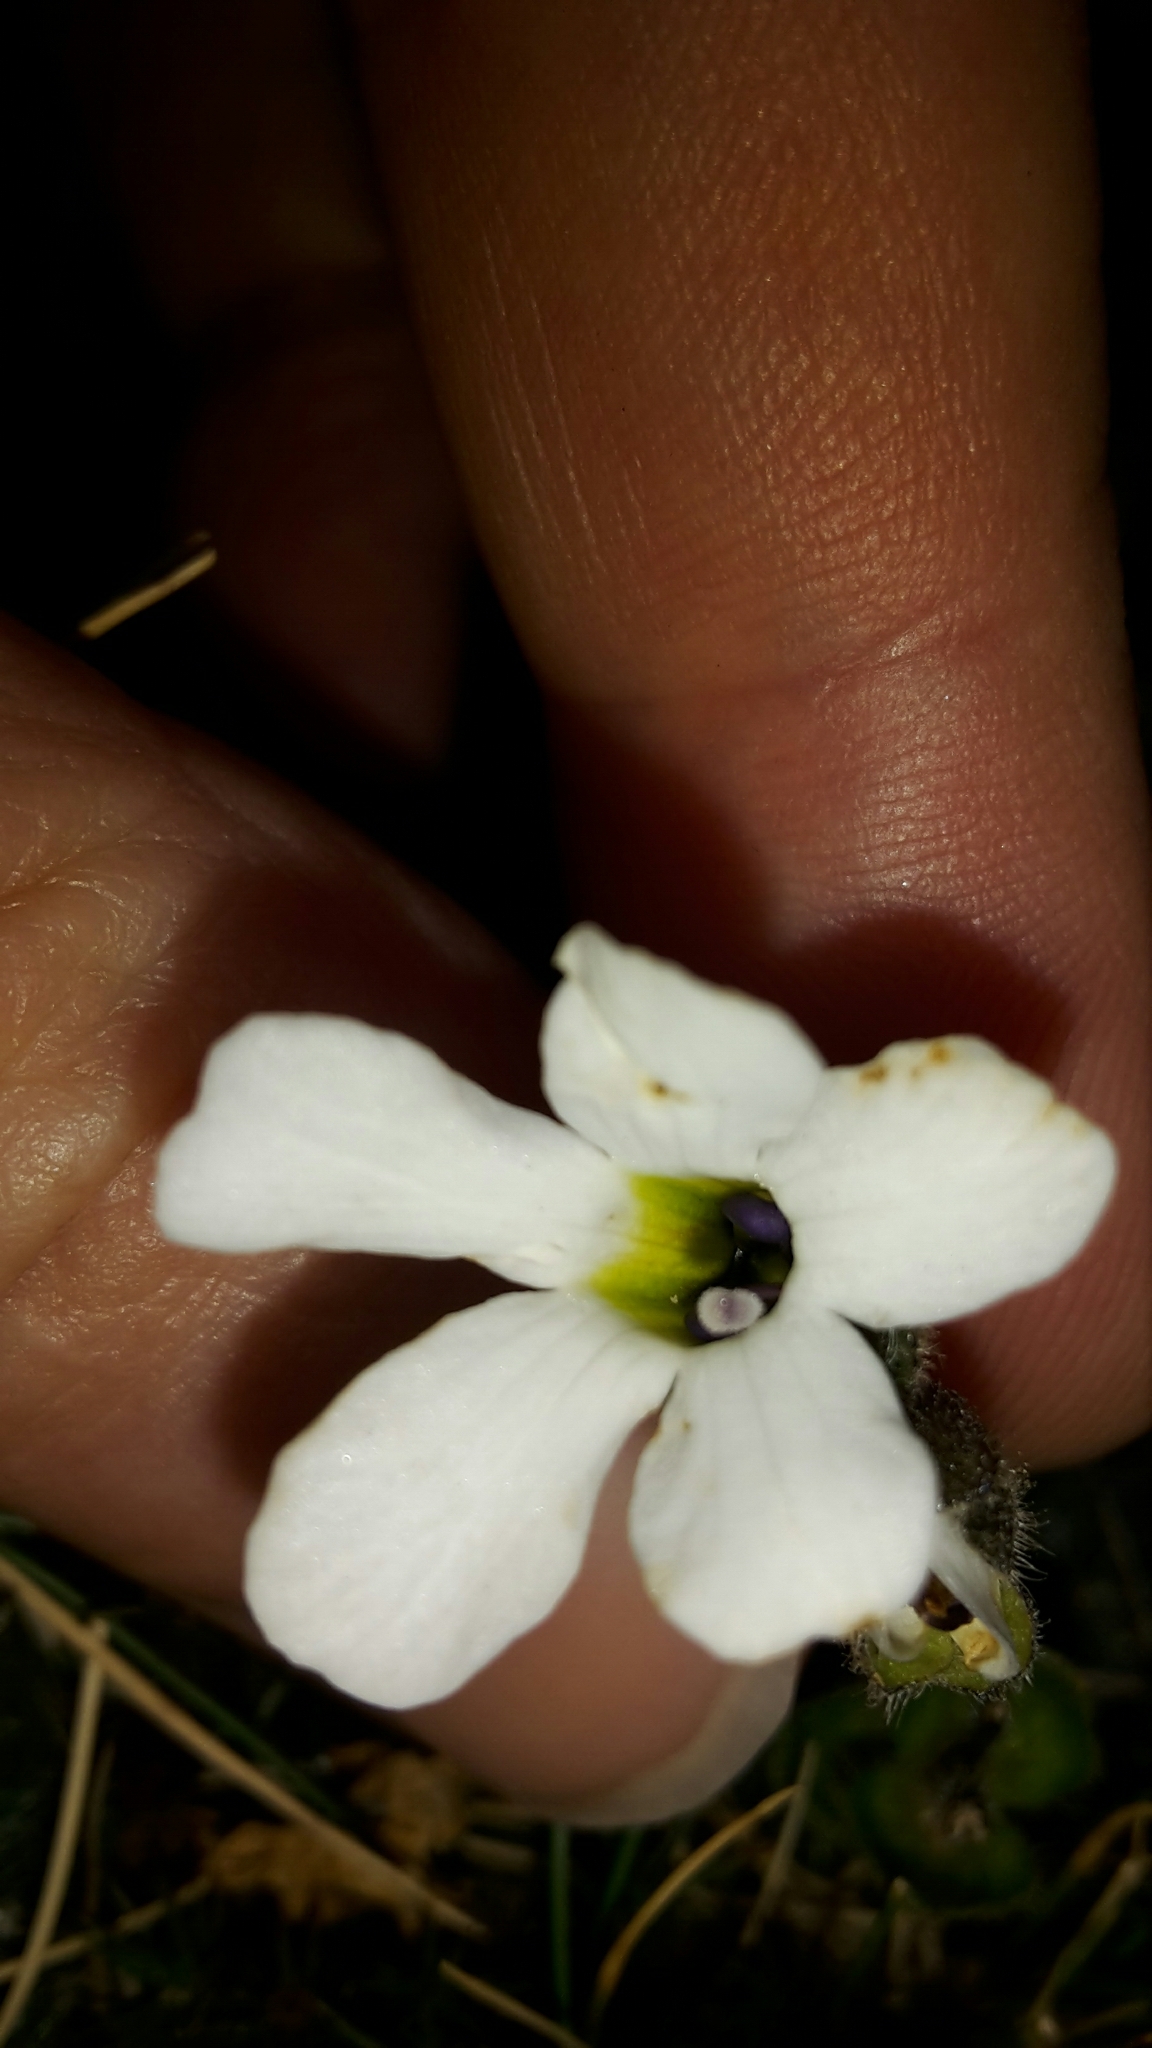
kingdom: Plantae
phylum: Tracheophyta
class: Magnoliopsida
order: Lamiales
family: Plantaginaceae
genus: Ourisia
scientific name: Ourisia glandulosa
